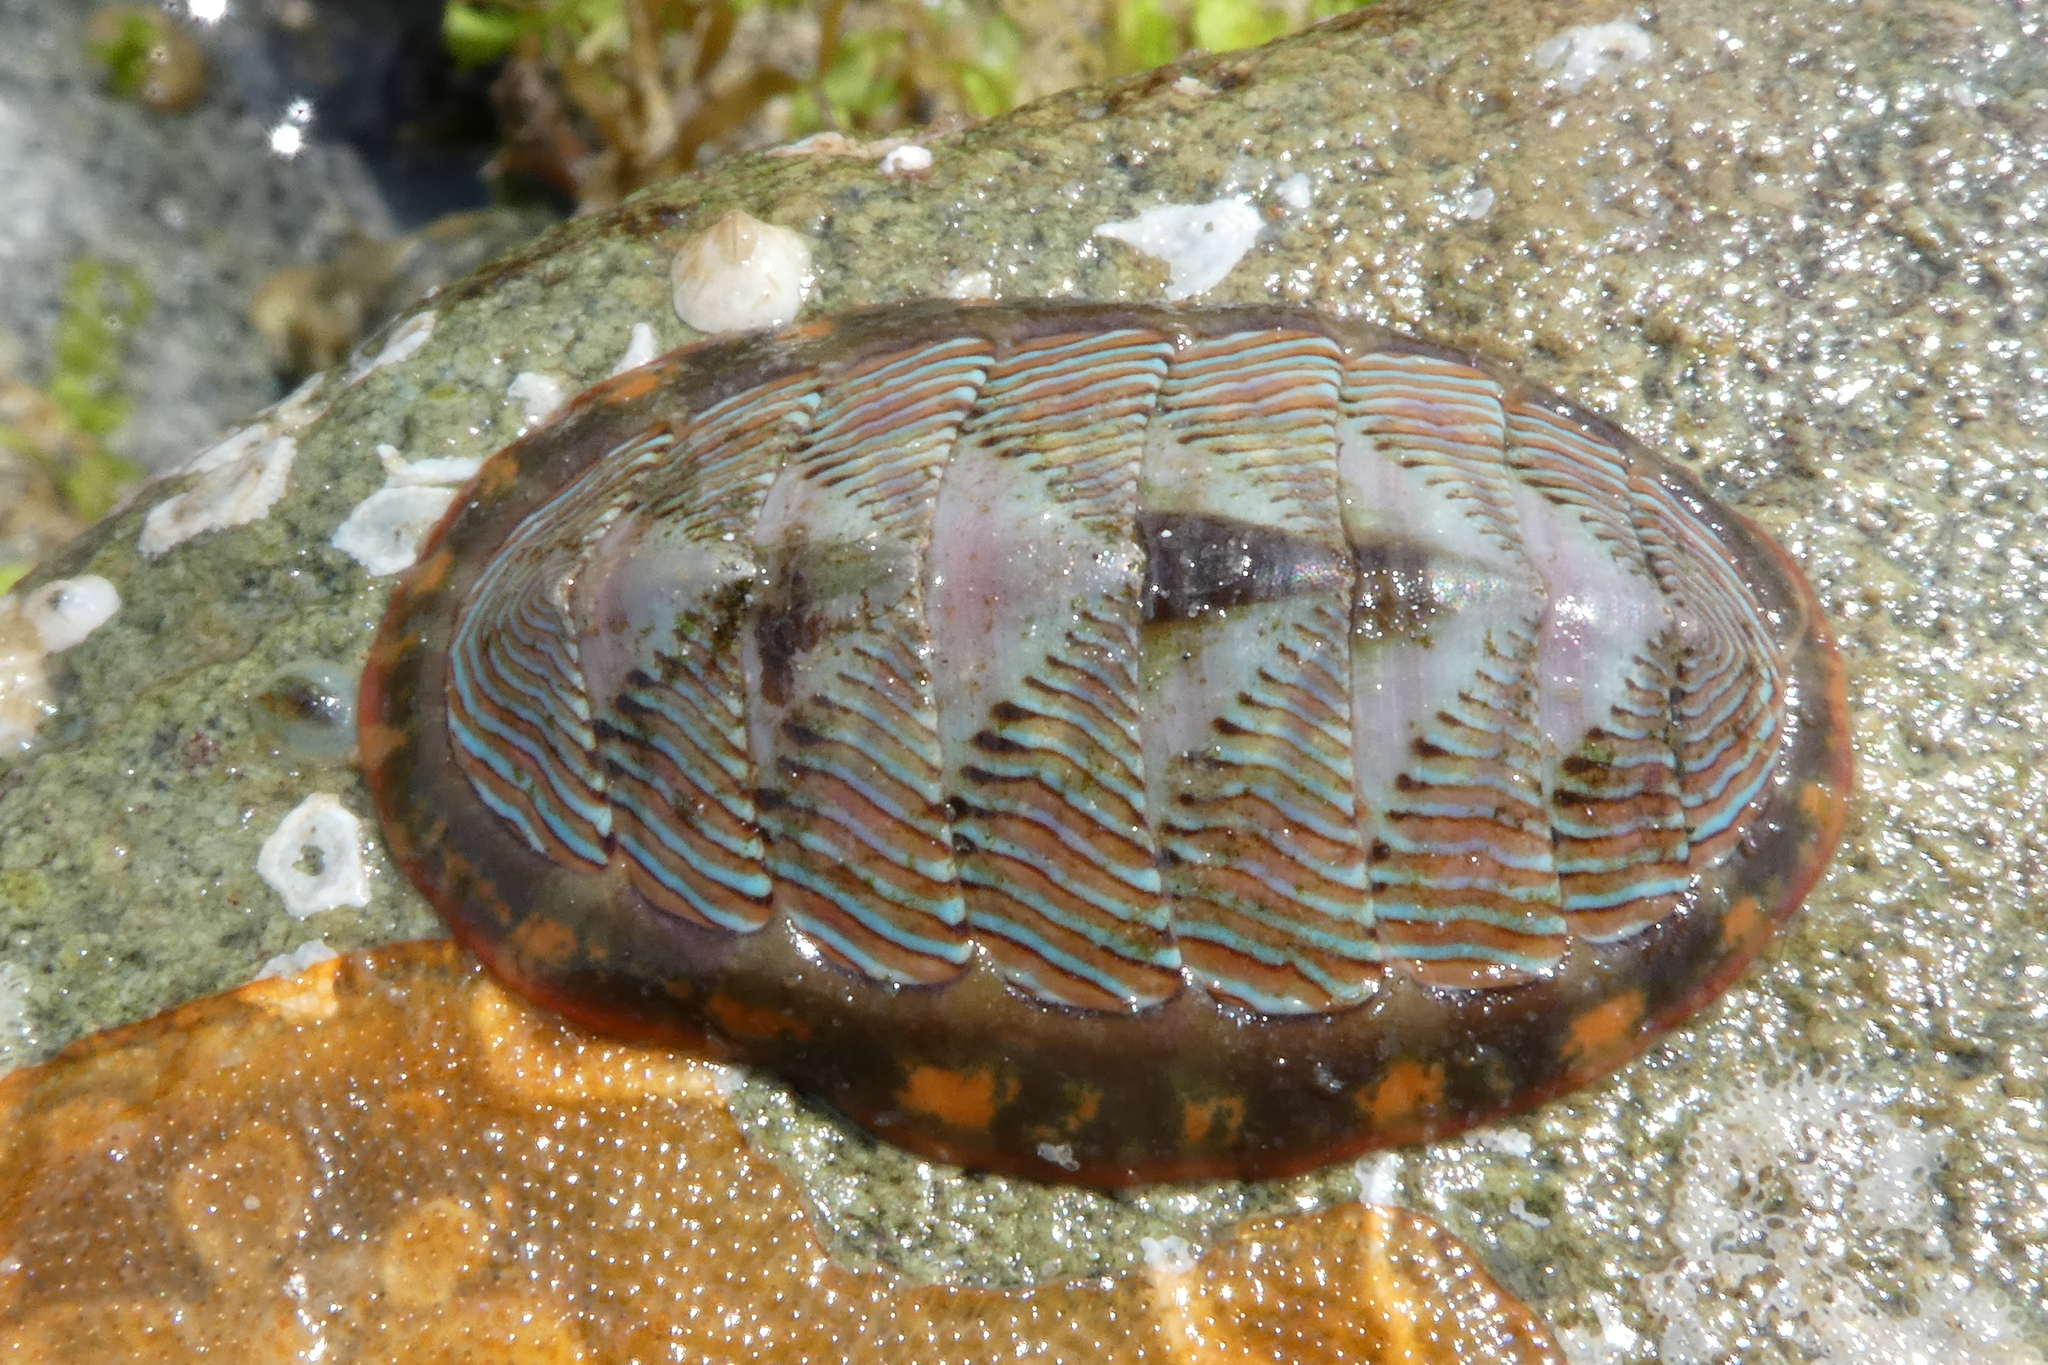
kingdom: Animalia
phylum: Mollusca
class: Polyplacophora
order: Chitonida
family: Tonicellidae
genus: Tonicella
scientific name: Tonicella lineata
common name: Lined chiton
